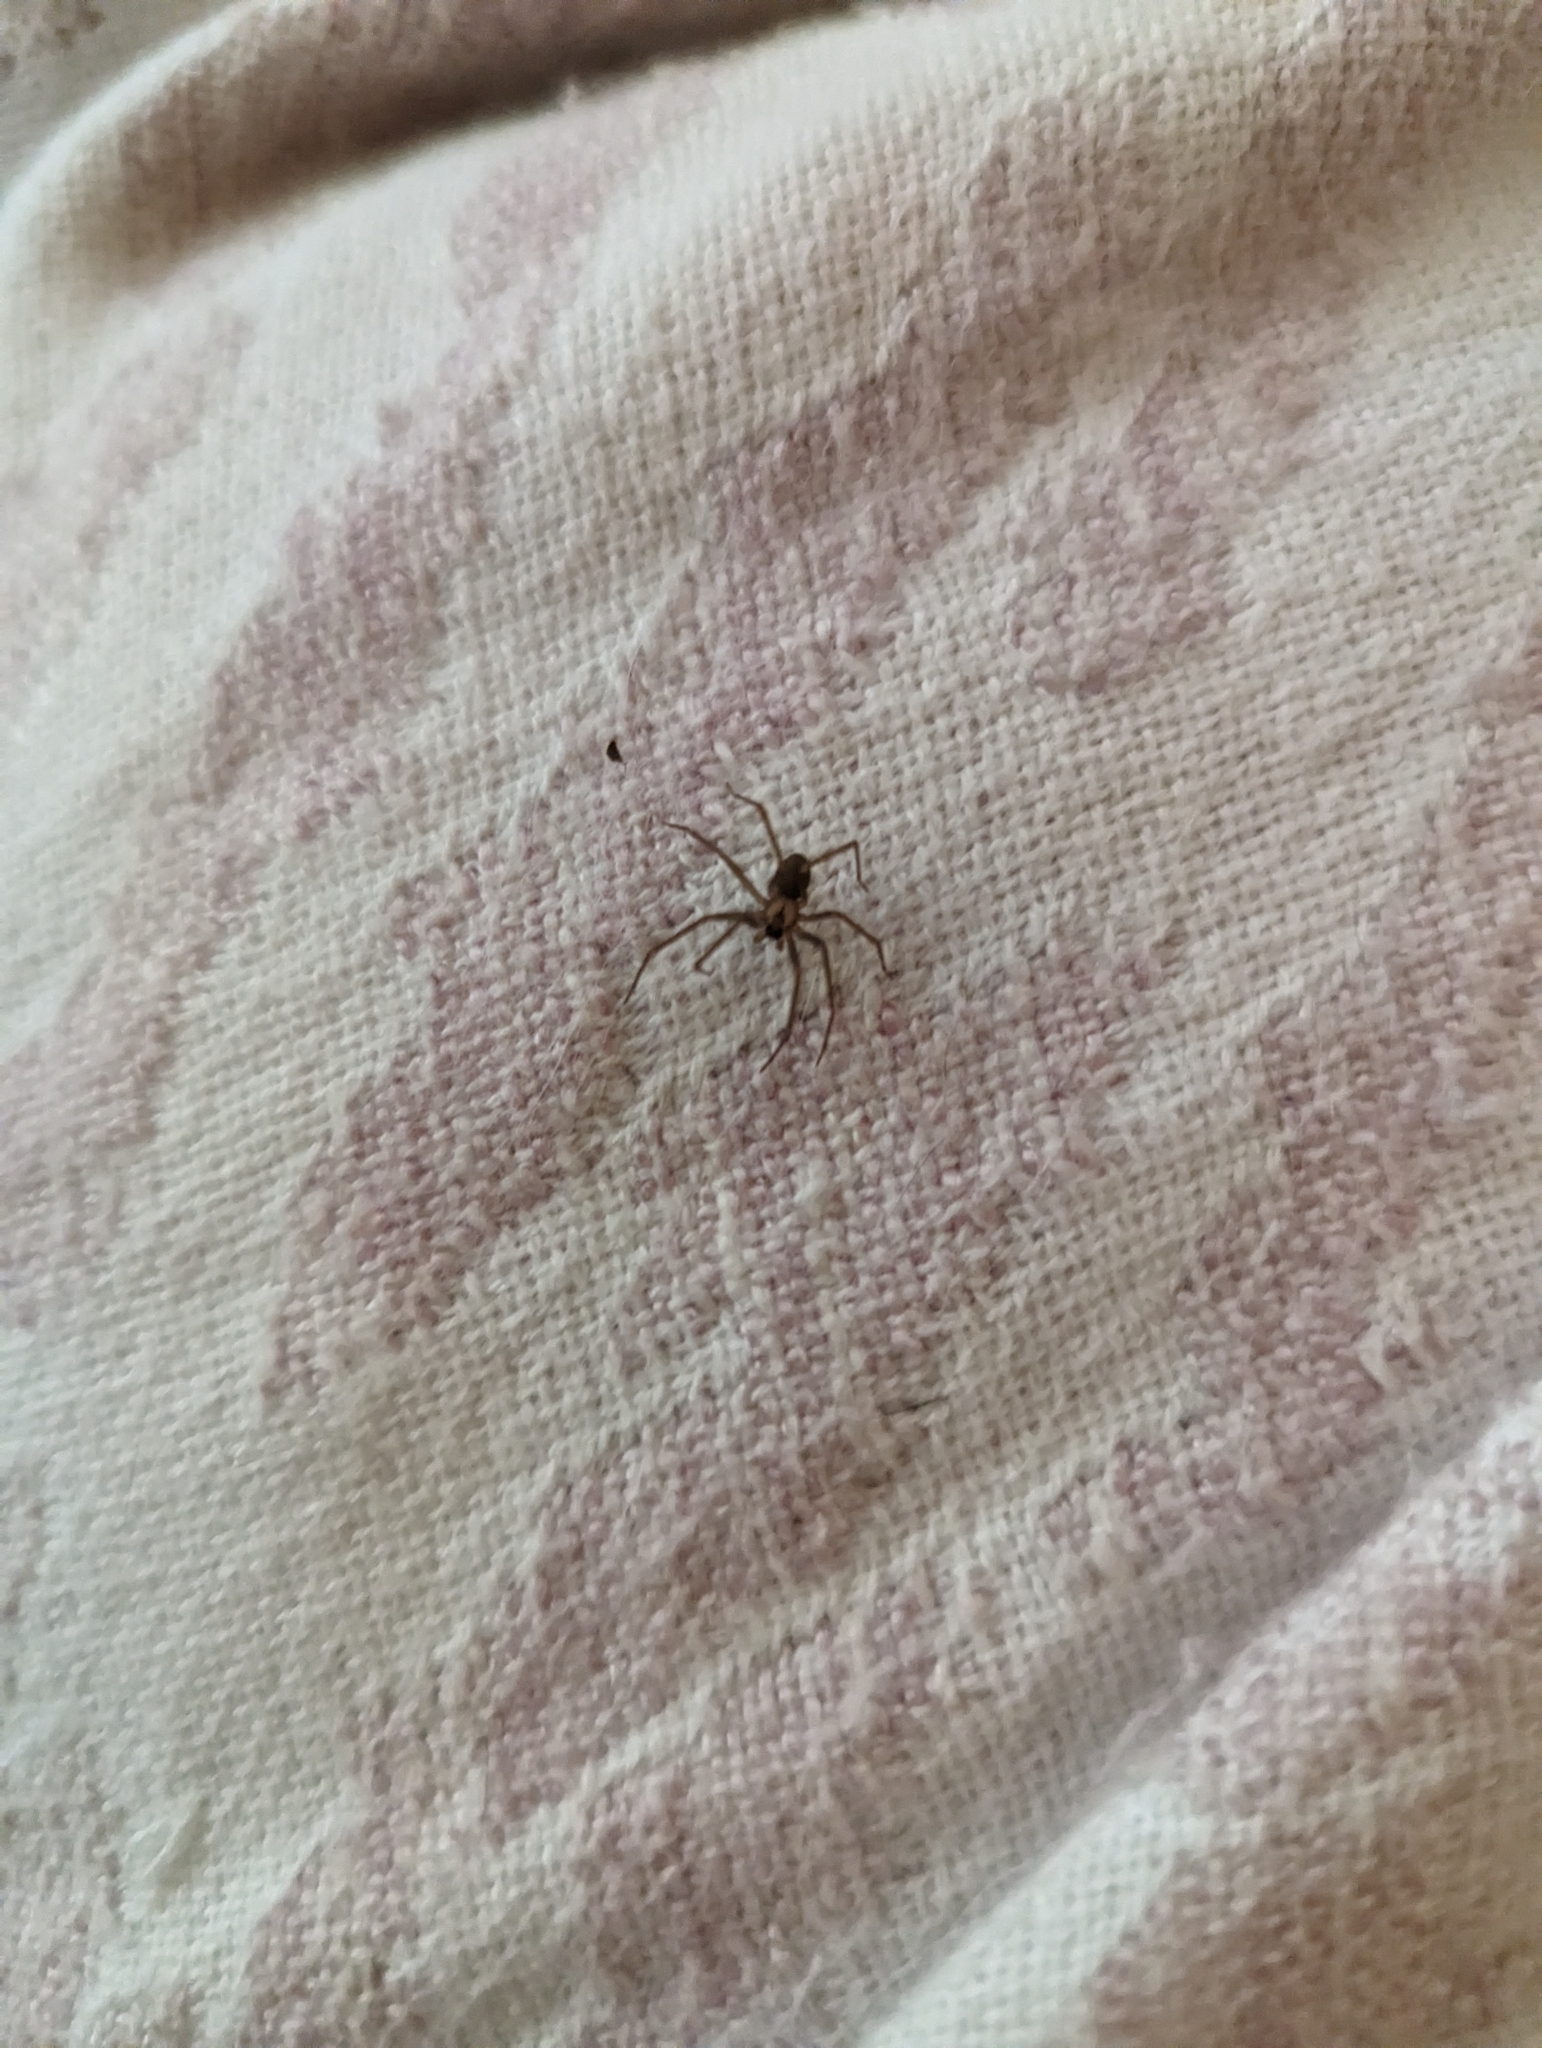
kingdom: Animalia
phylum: Arthropoda
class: Arachnida
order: Araneae
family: Sicariidae
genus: Loxosceles
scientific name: Loxosceles reclusa
